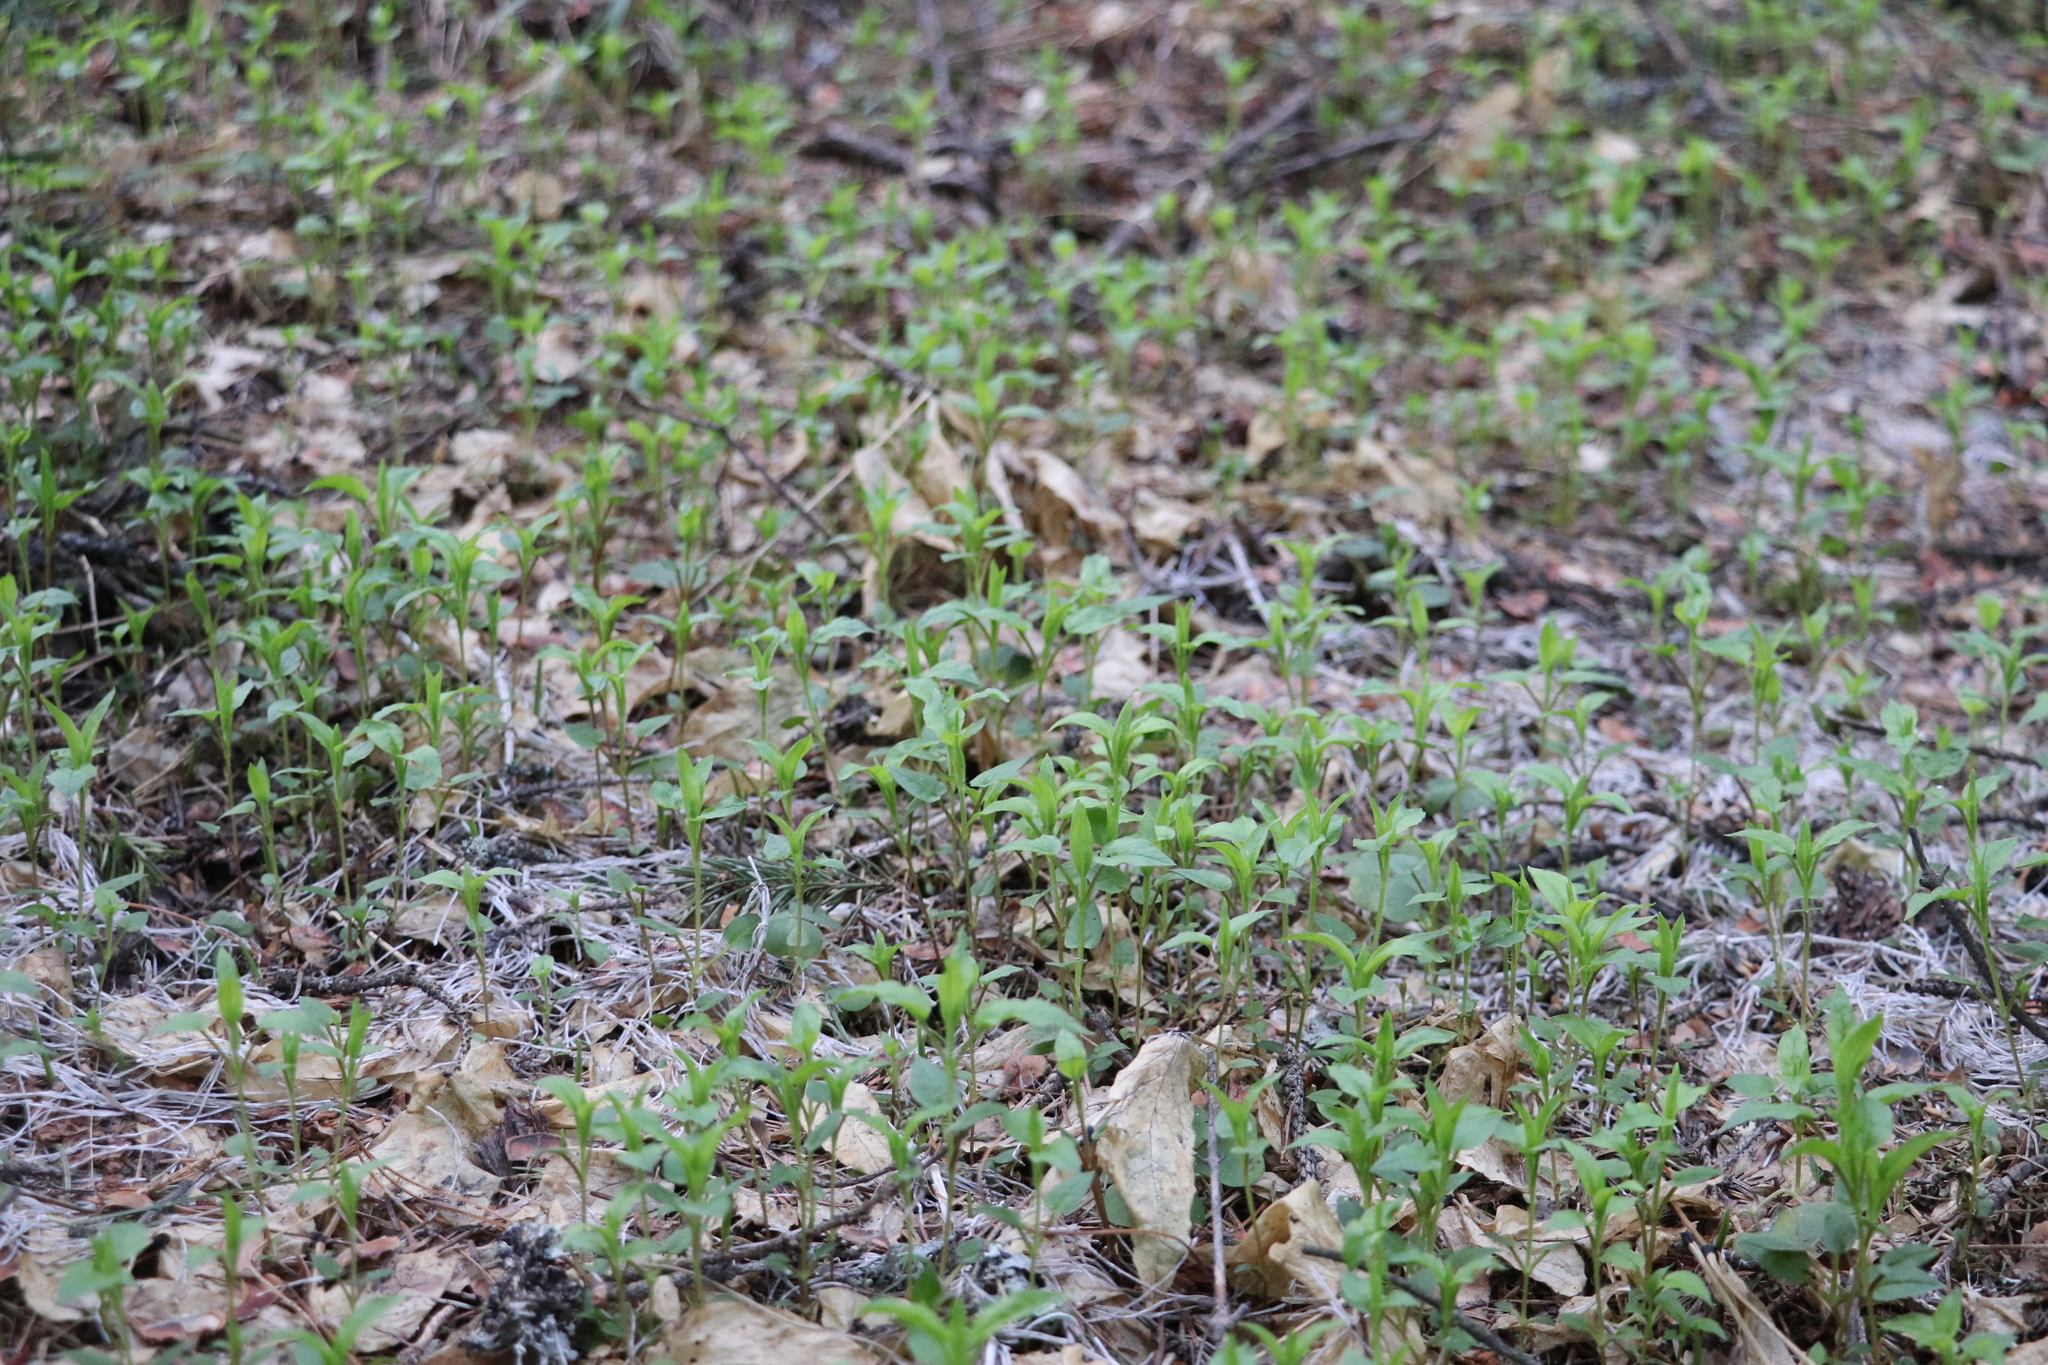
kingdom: Plantae
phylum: Tracheophyta
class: Magnoliopsida
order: Caryophyllales
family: Caryophyllaceae
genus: Stellaria
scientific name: Stellaria bungeana
